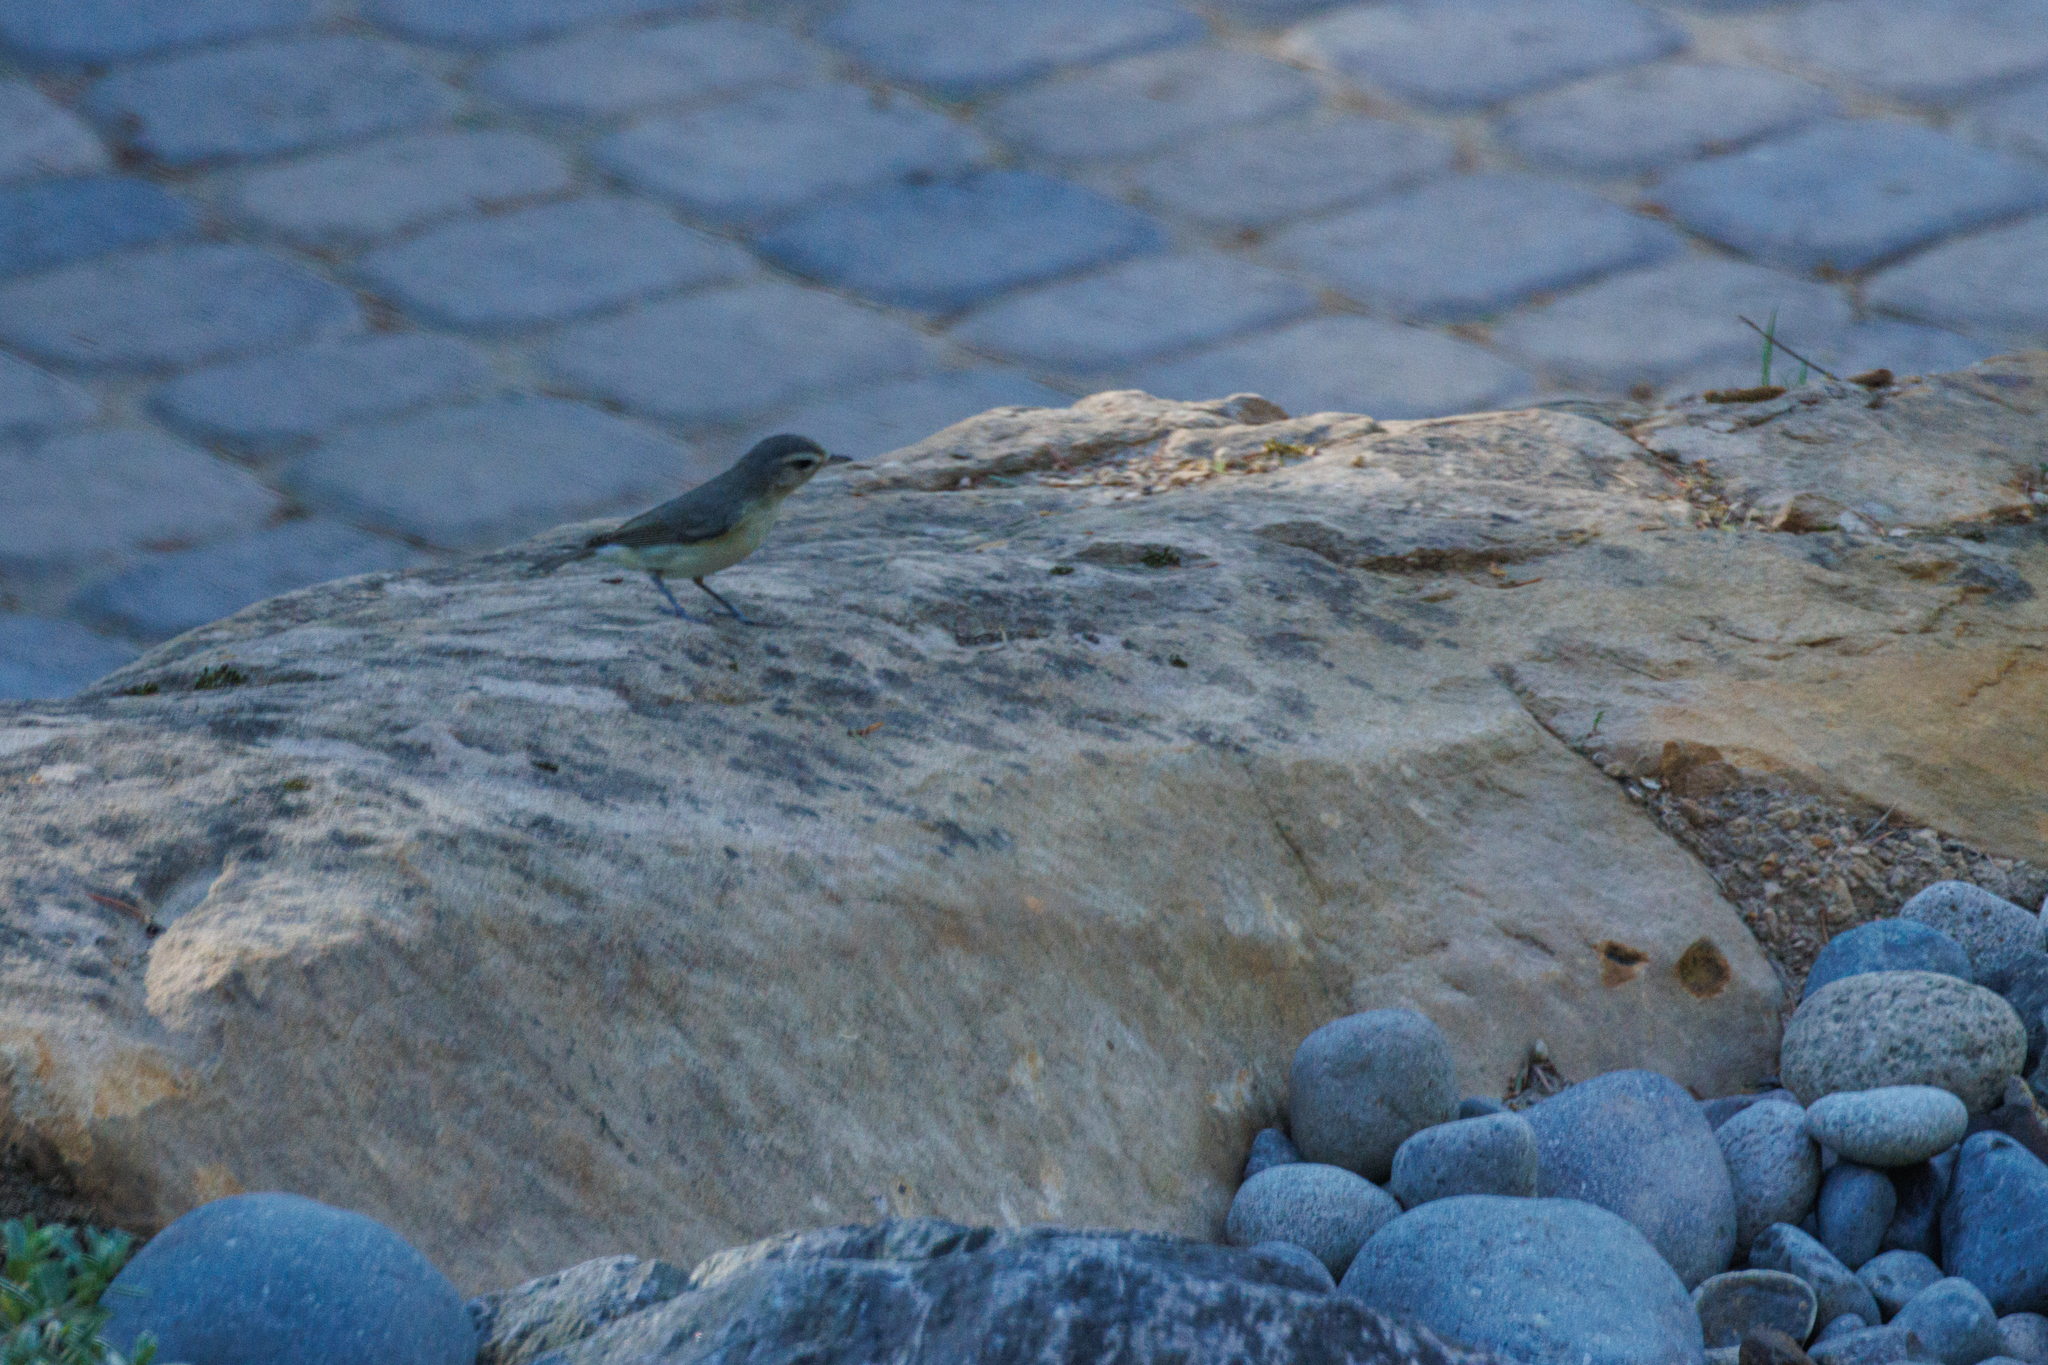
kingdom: Animalia
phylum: Chordata
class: Aves
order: Passeriformes
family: Vireonidae
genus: Vireo
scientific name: Vireo gilvus
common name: Warbling vireo
